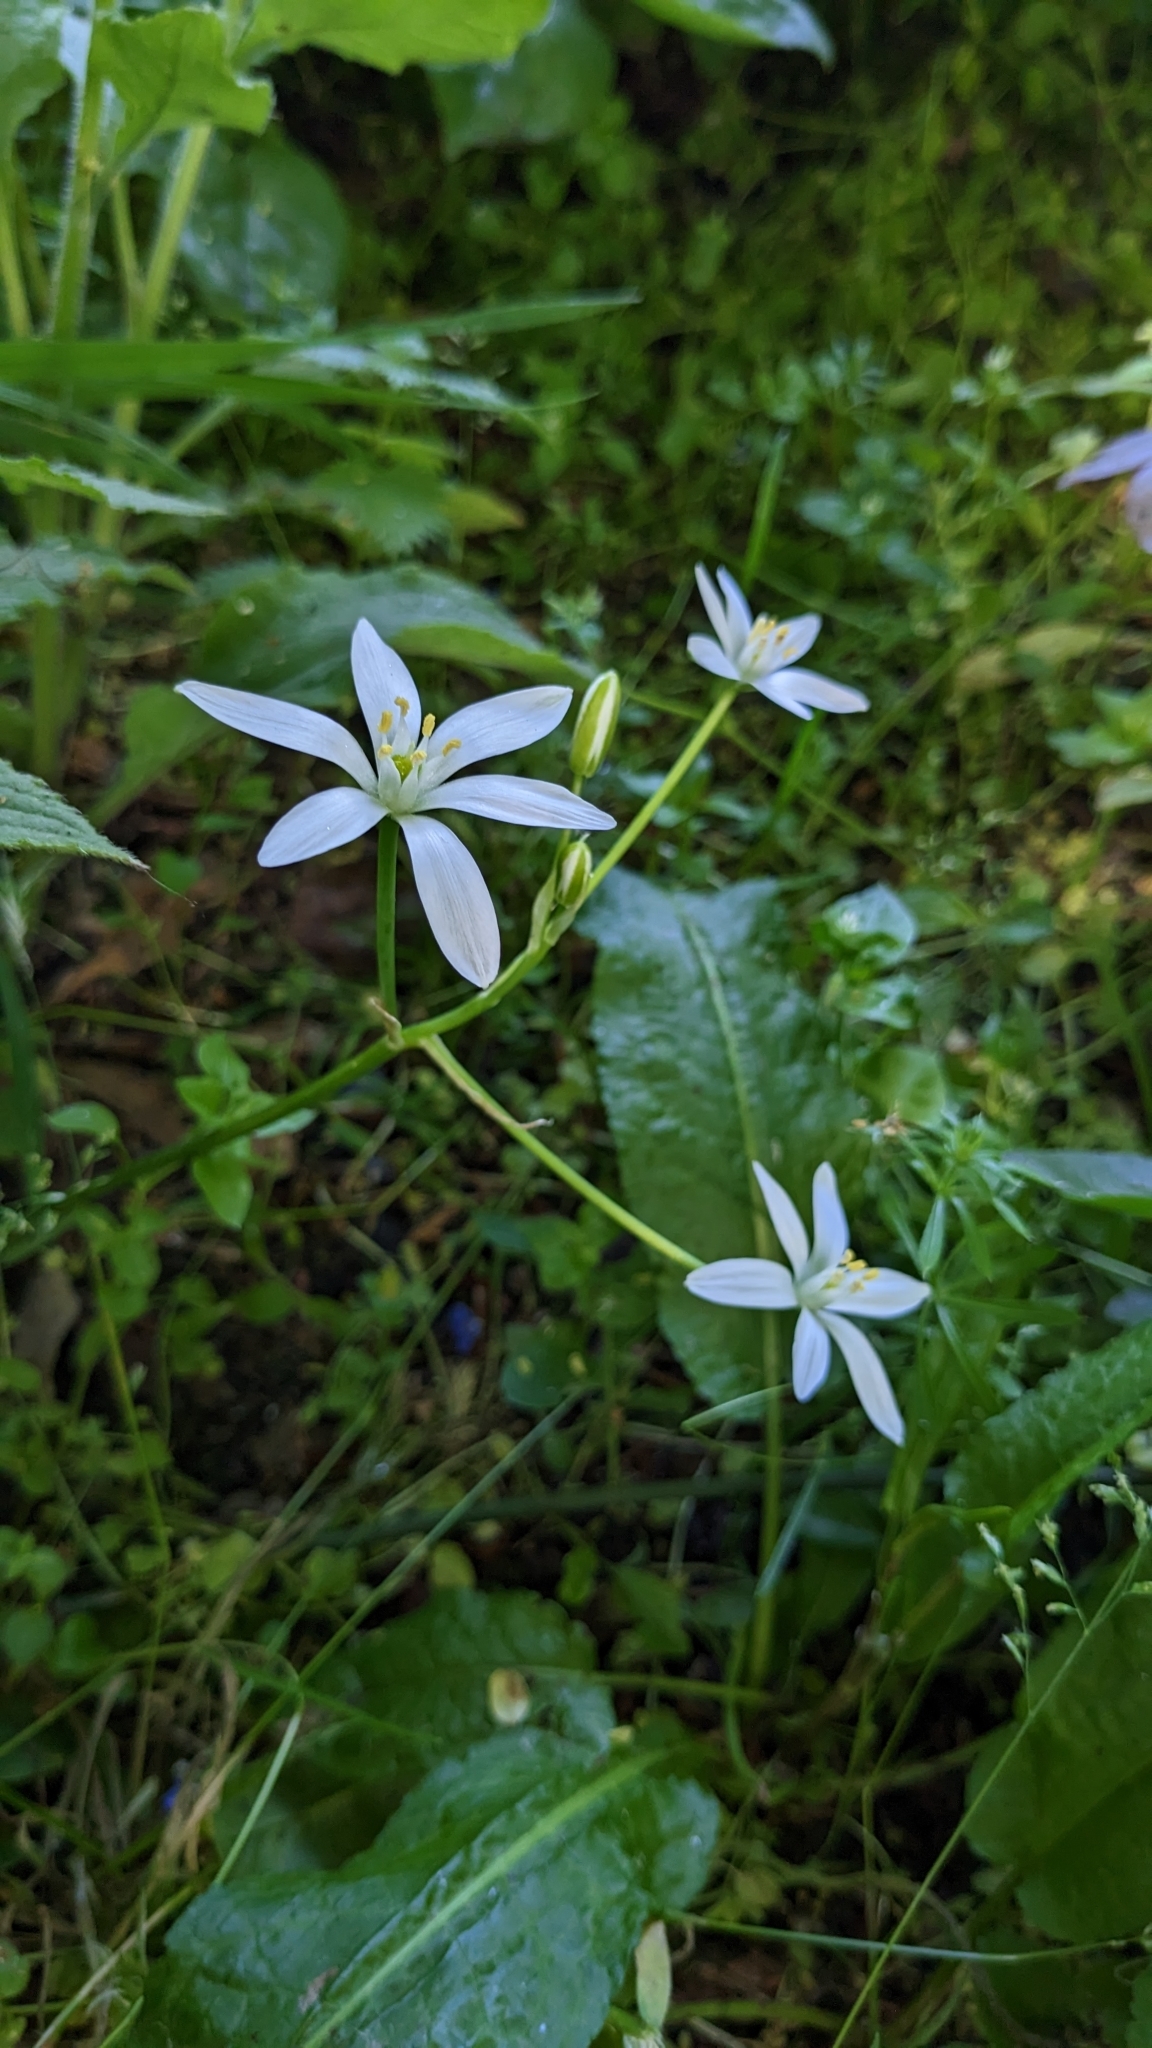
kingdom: Plantae
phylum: Tracheophyta
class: Liliopsida
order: Asparagales
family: Asparagaceae
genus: Ornithogalum
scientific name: Ornithogalum umbellatum
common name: Garden star-of-bethlehem
